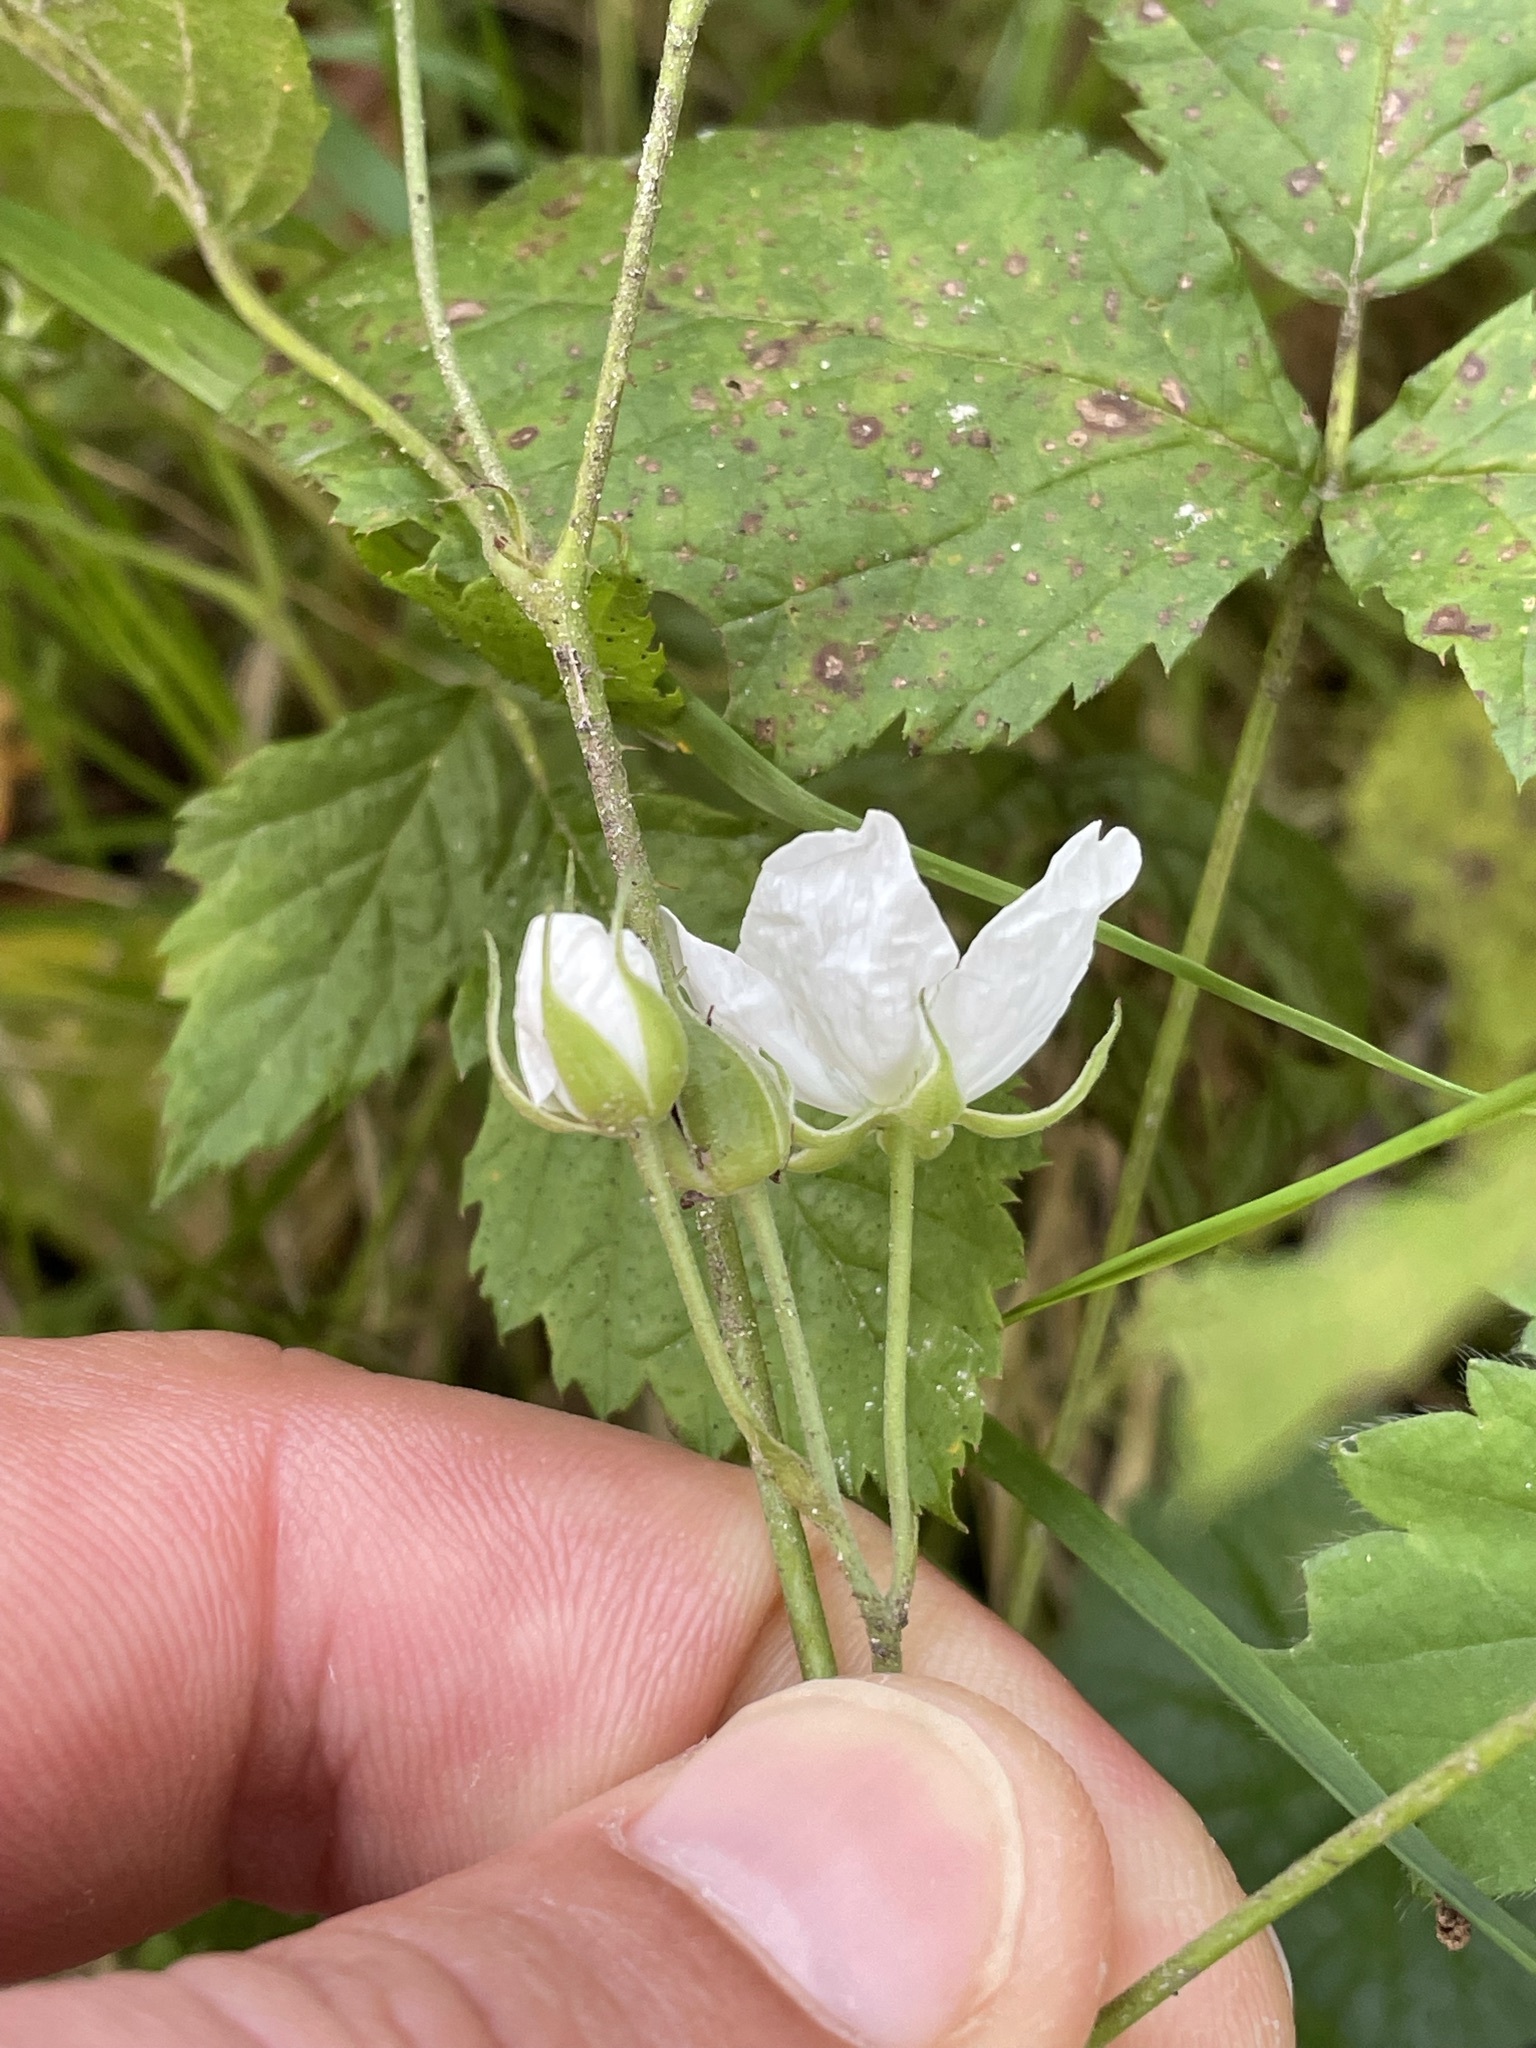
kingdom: Plantae
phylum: Tracheophyta
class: Magnoliopsida
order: Rosales
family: Rosaceae
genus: Rubus
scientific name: Rubus caesius
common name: Dewberry
